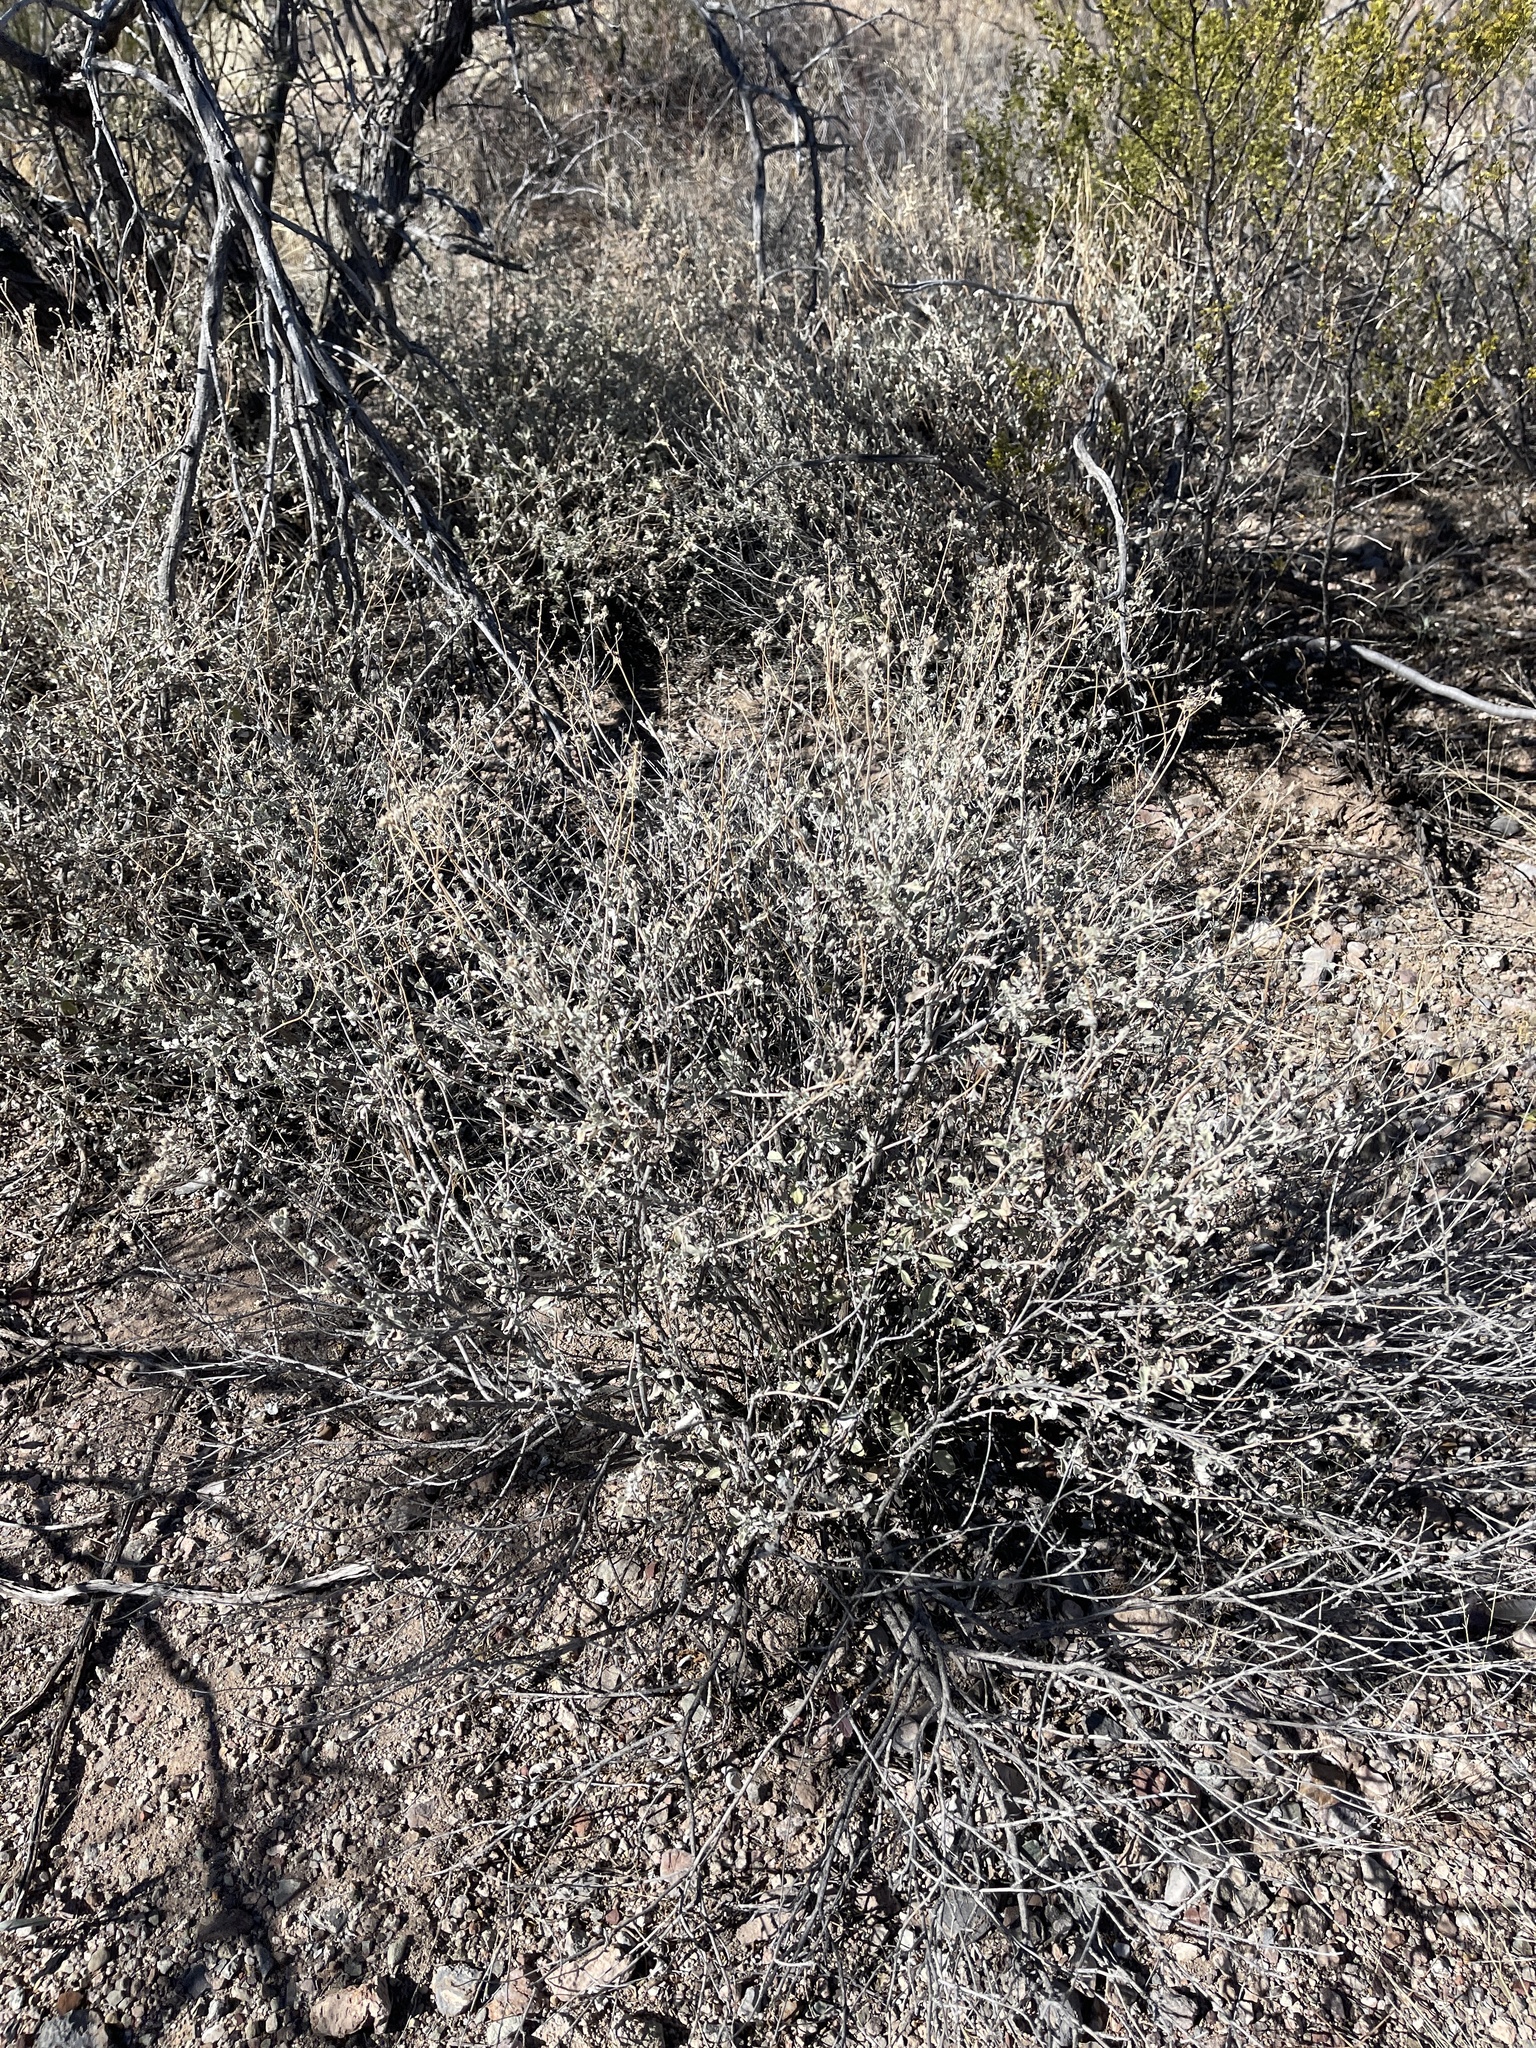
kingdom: Plantae
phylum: Tracheophyta
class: Magnoliopsida
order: Asterales
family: Asteraceae
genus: Parthenium
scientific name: Parthenium incanum
